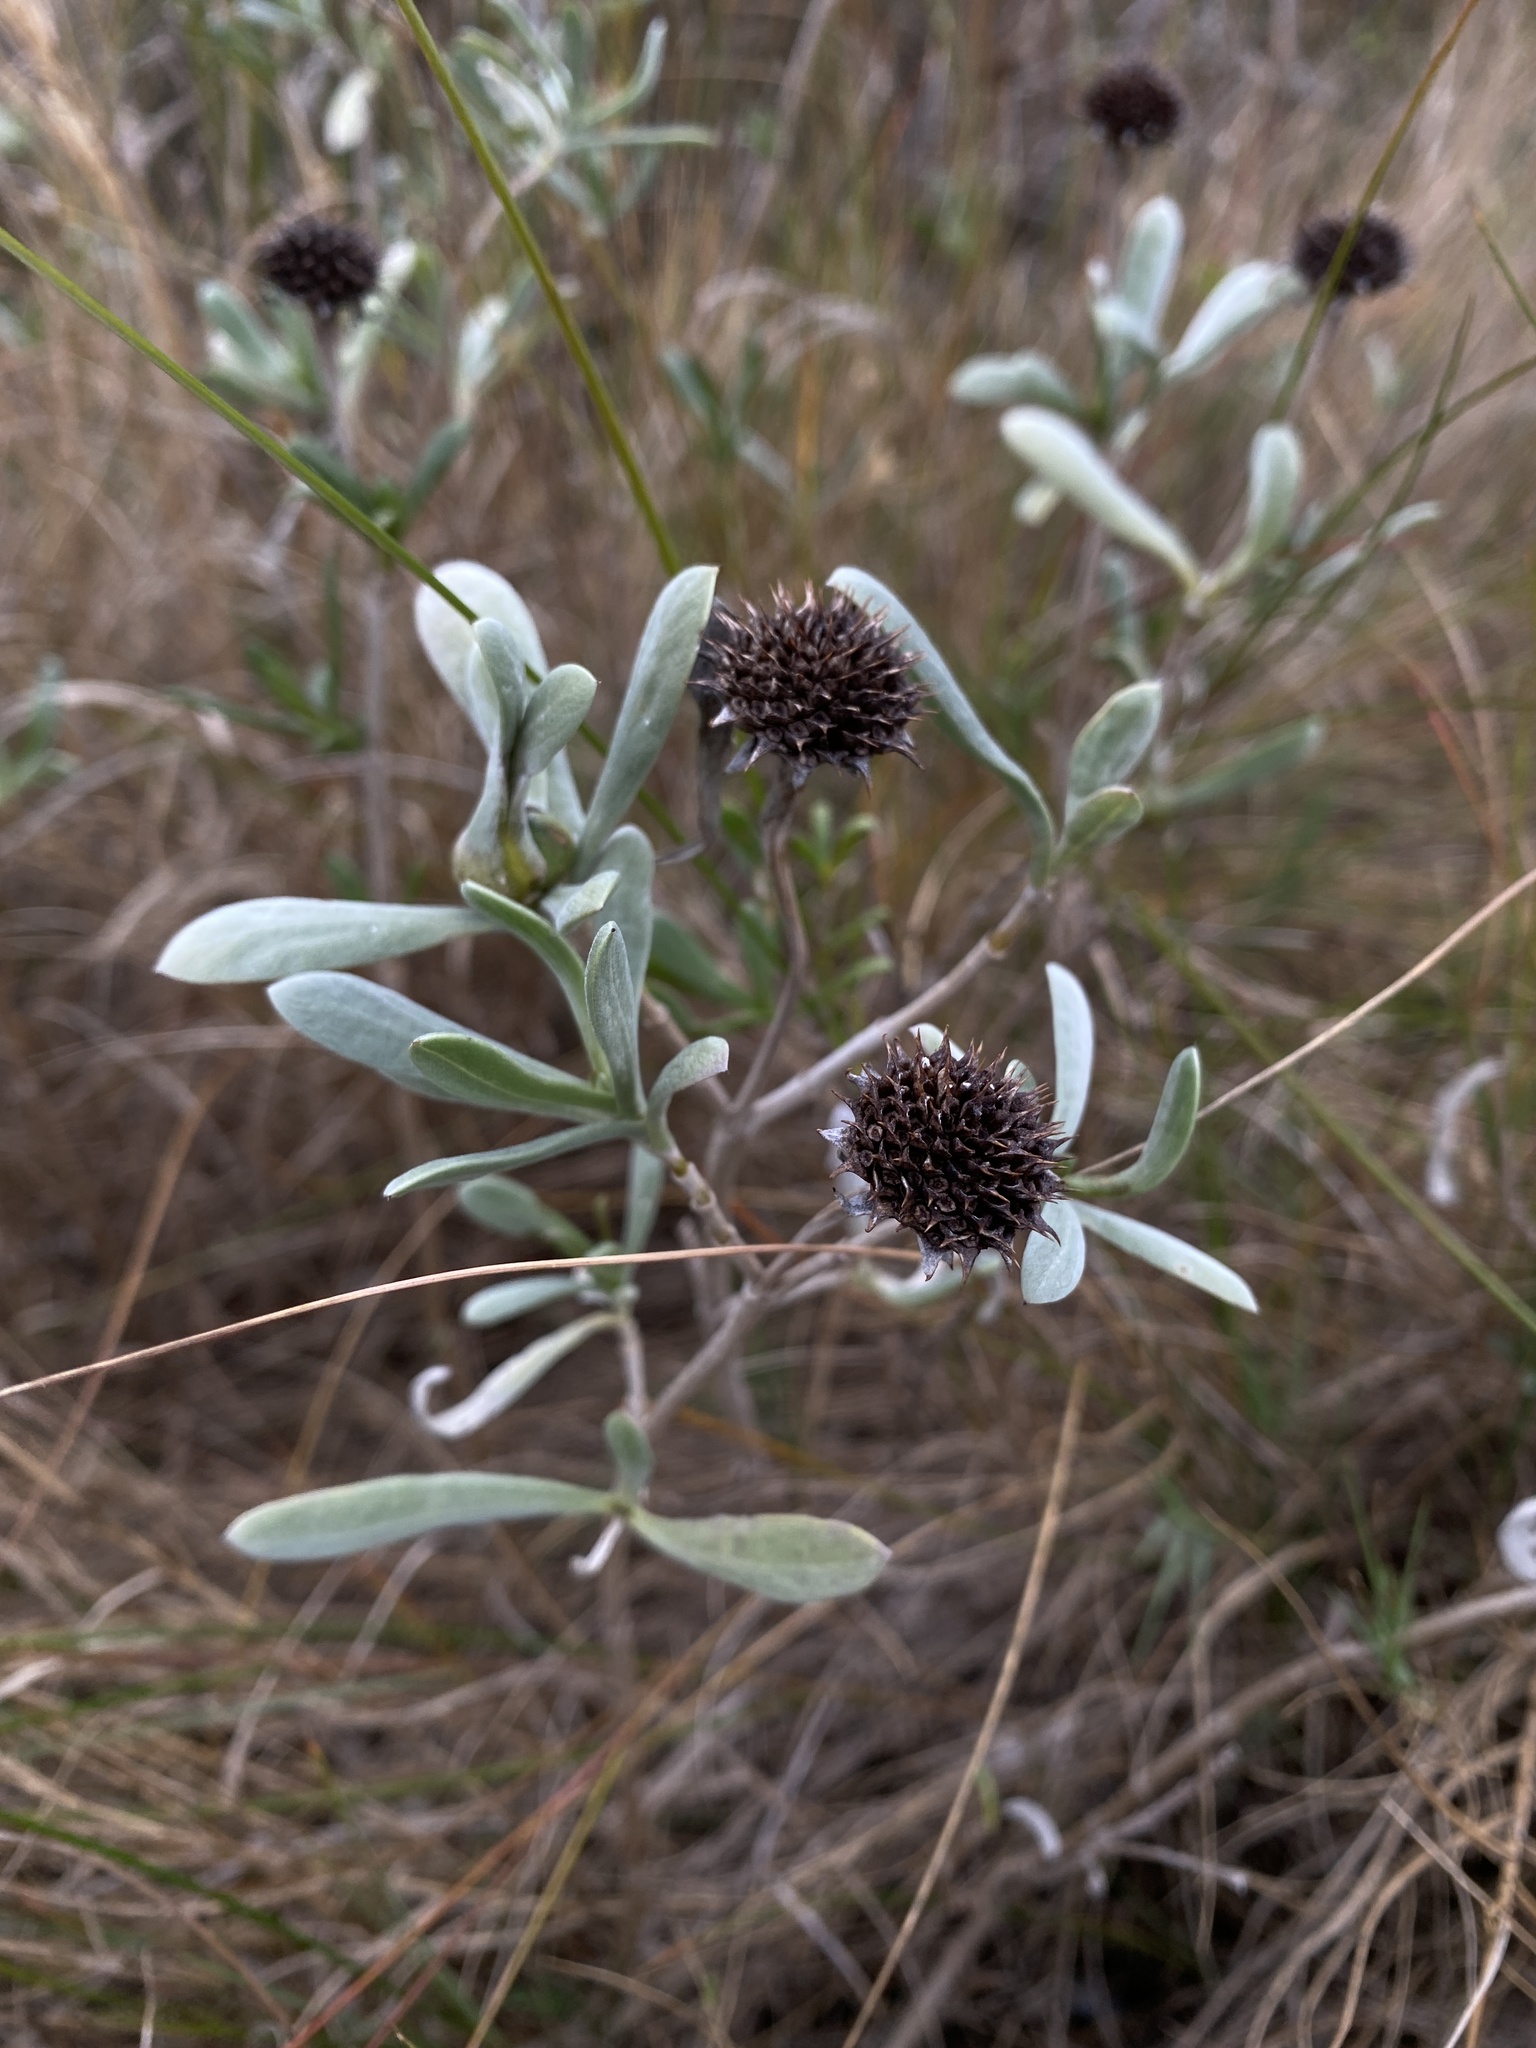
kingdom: Plantae
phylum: Tracheophyta
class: Magnoliopsida
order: Asterales
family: Asteraceae
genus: Borrichia
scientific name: Borrichia frutescens
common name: Sea oxeye
